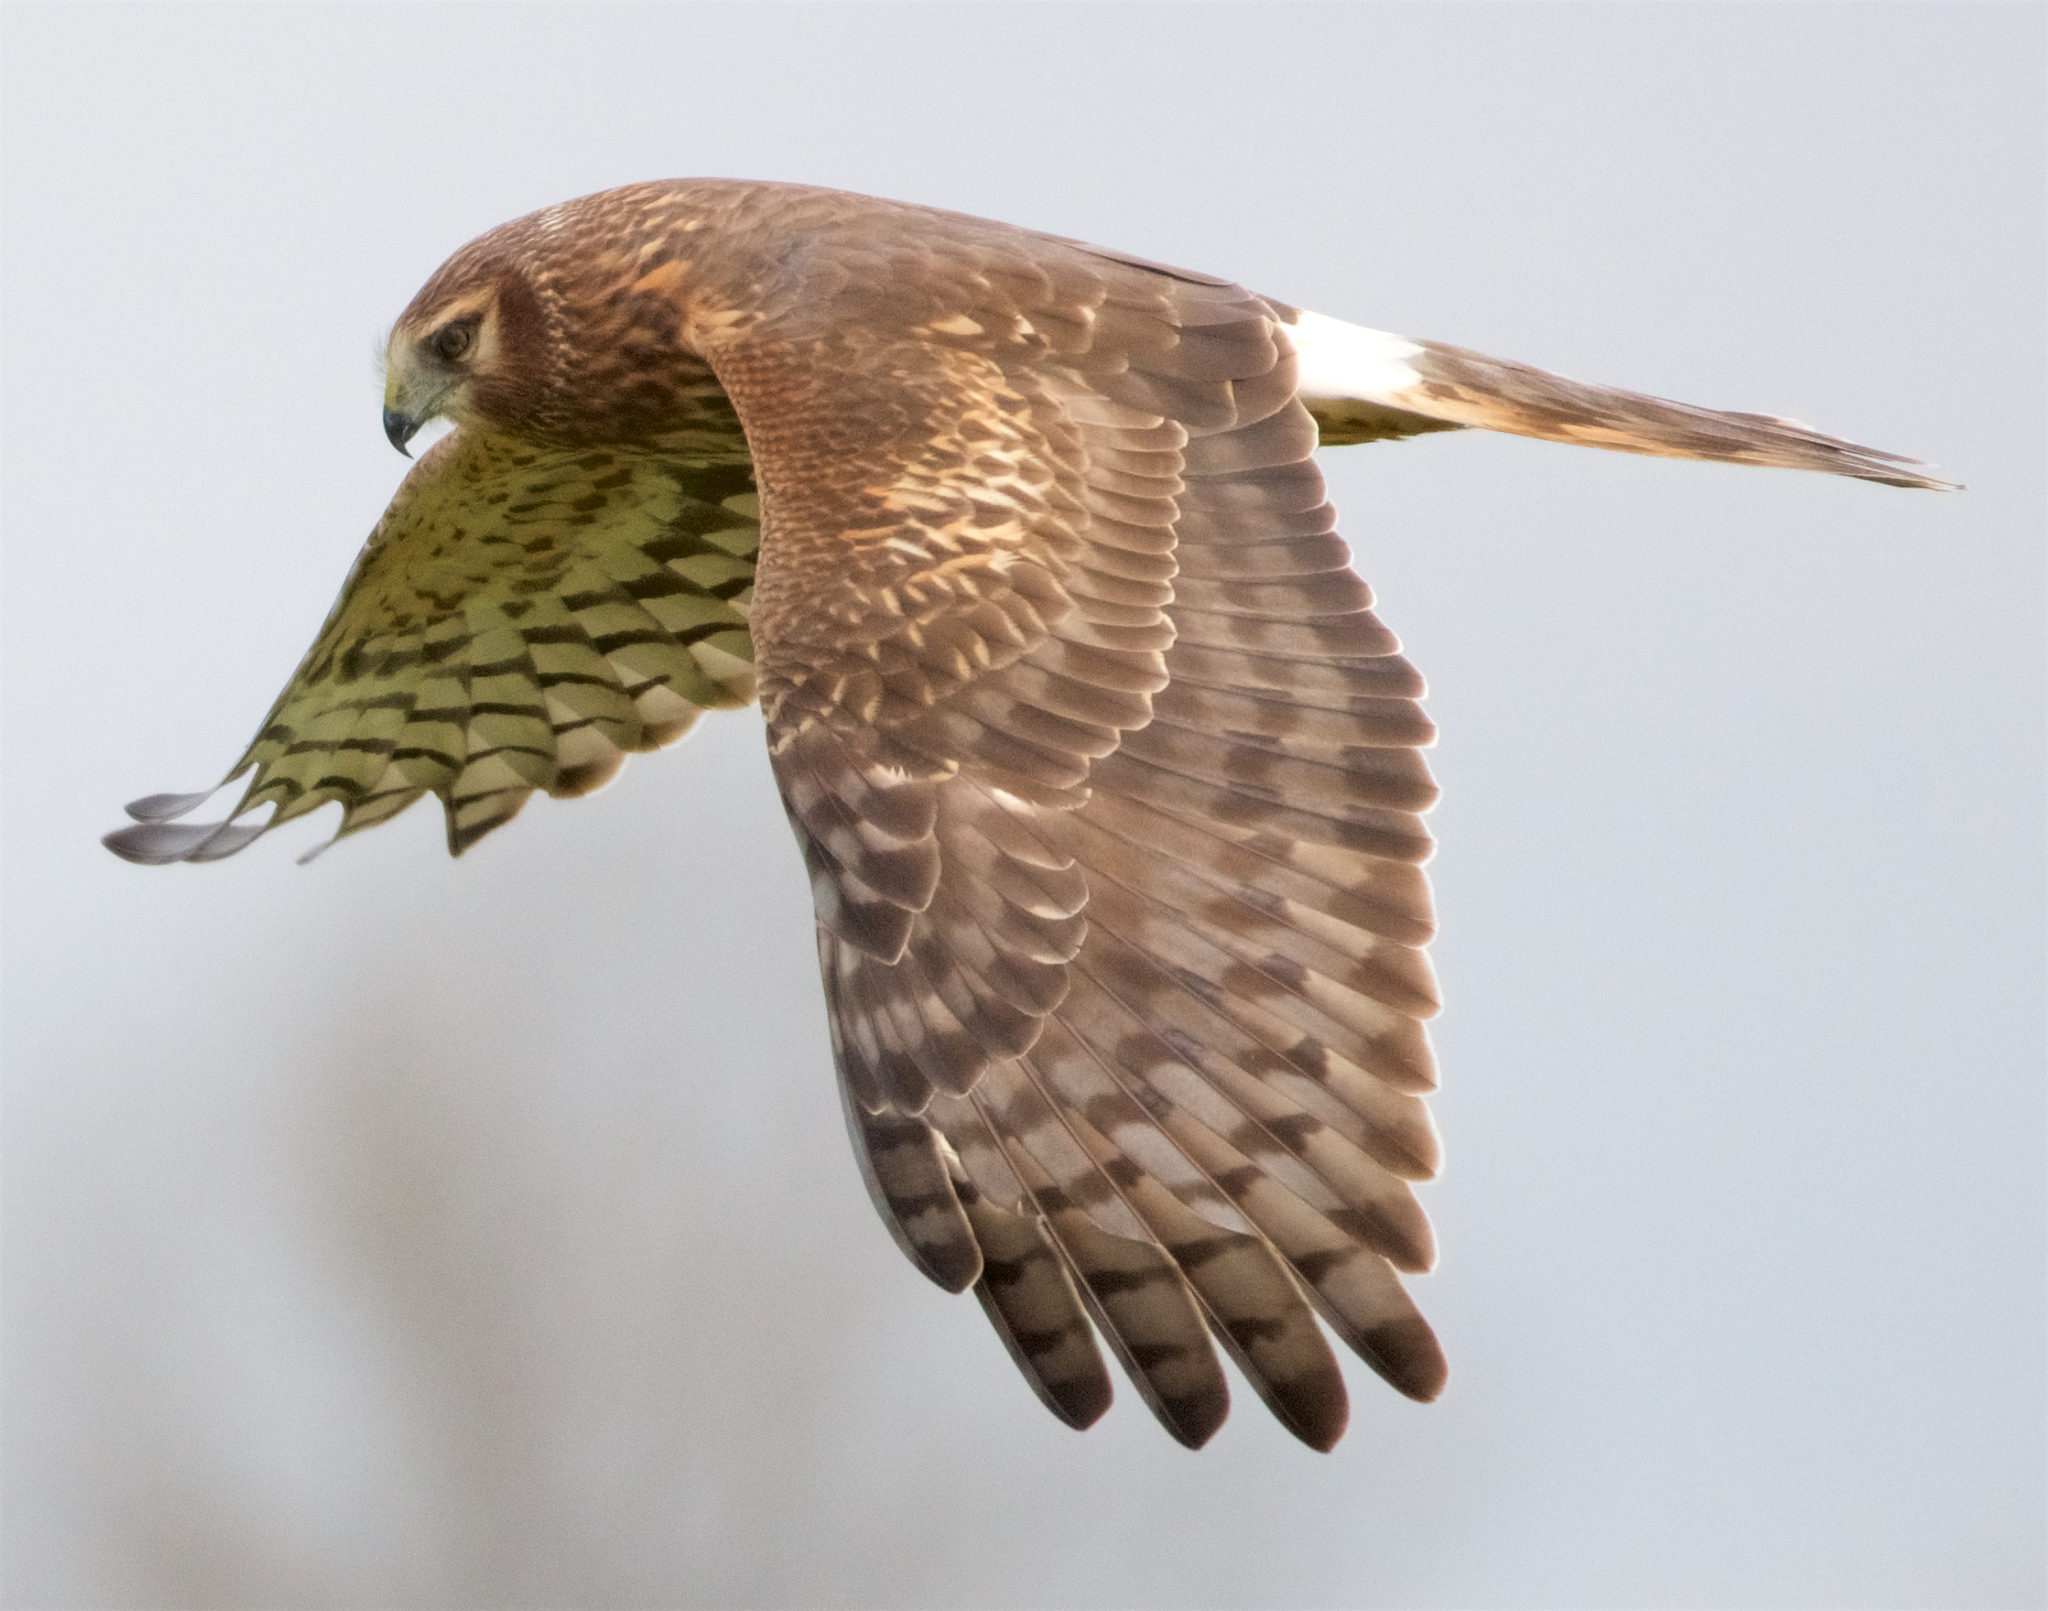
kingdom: Animalia
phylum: Chordata
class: Aves
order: Accipitriformes
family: Accipitridae
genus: Circus
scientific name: Circus cyaneus
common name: Hen harrier
